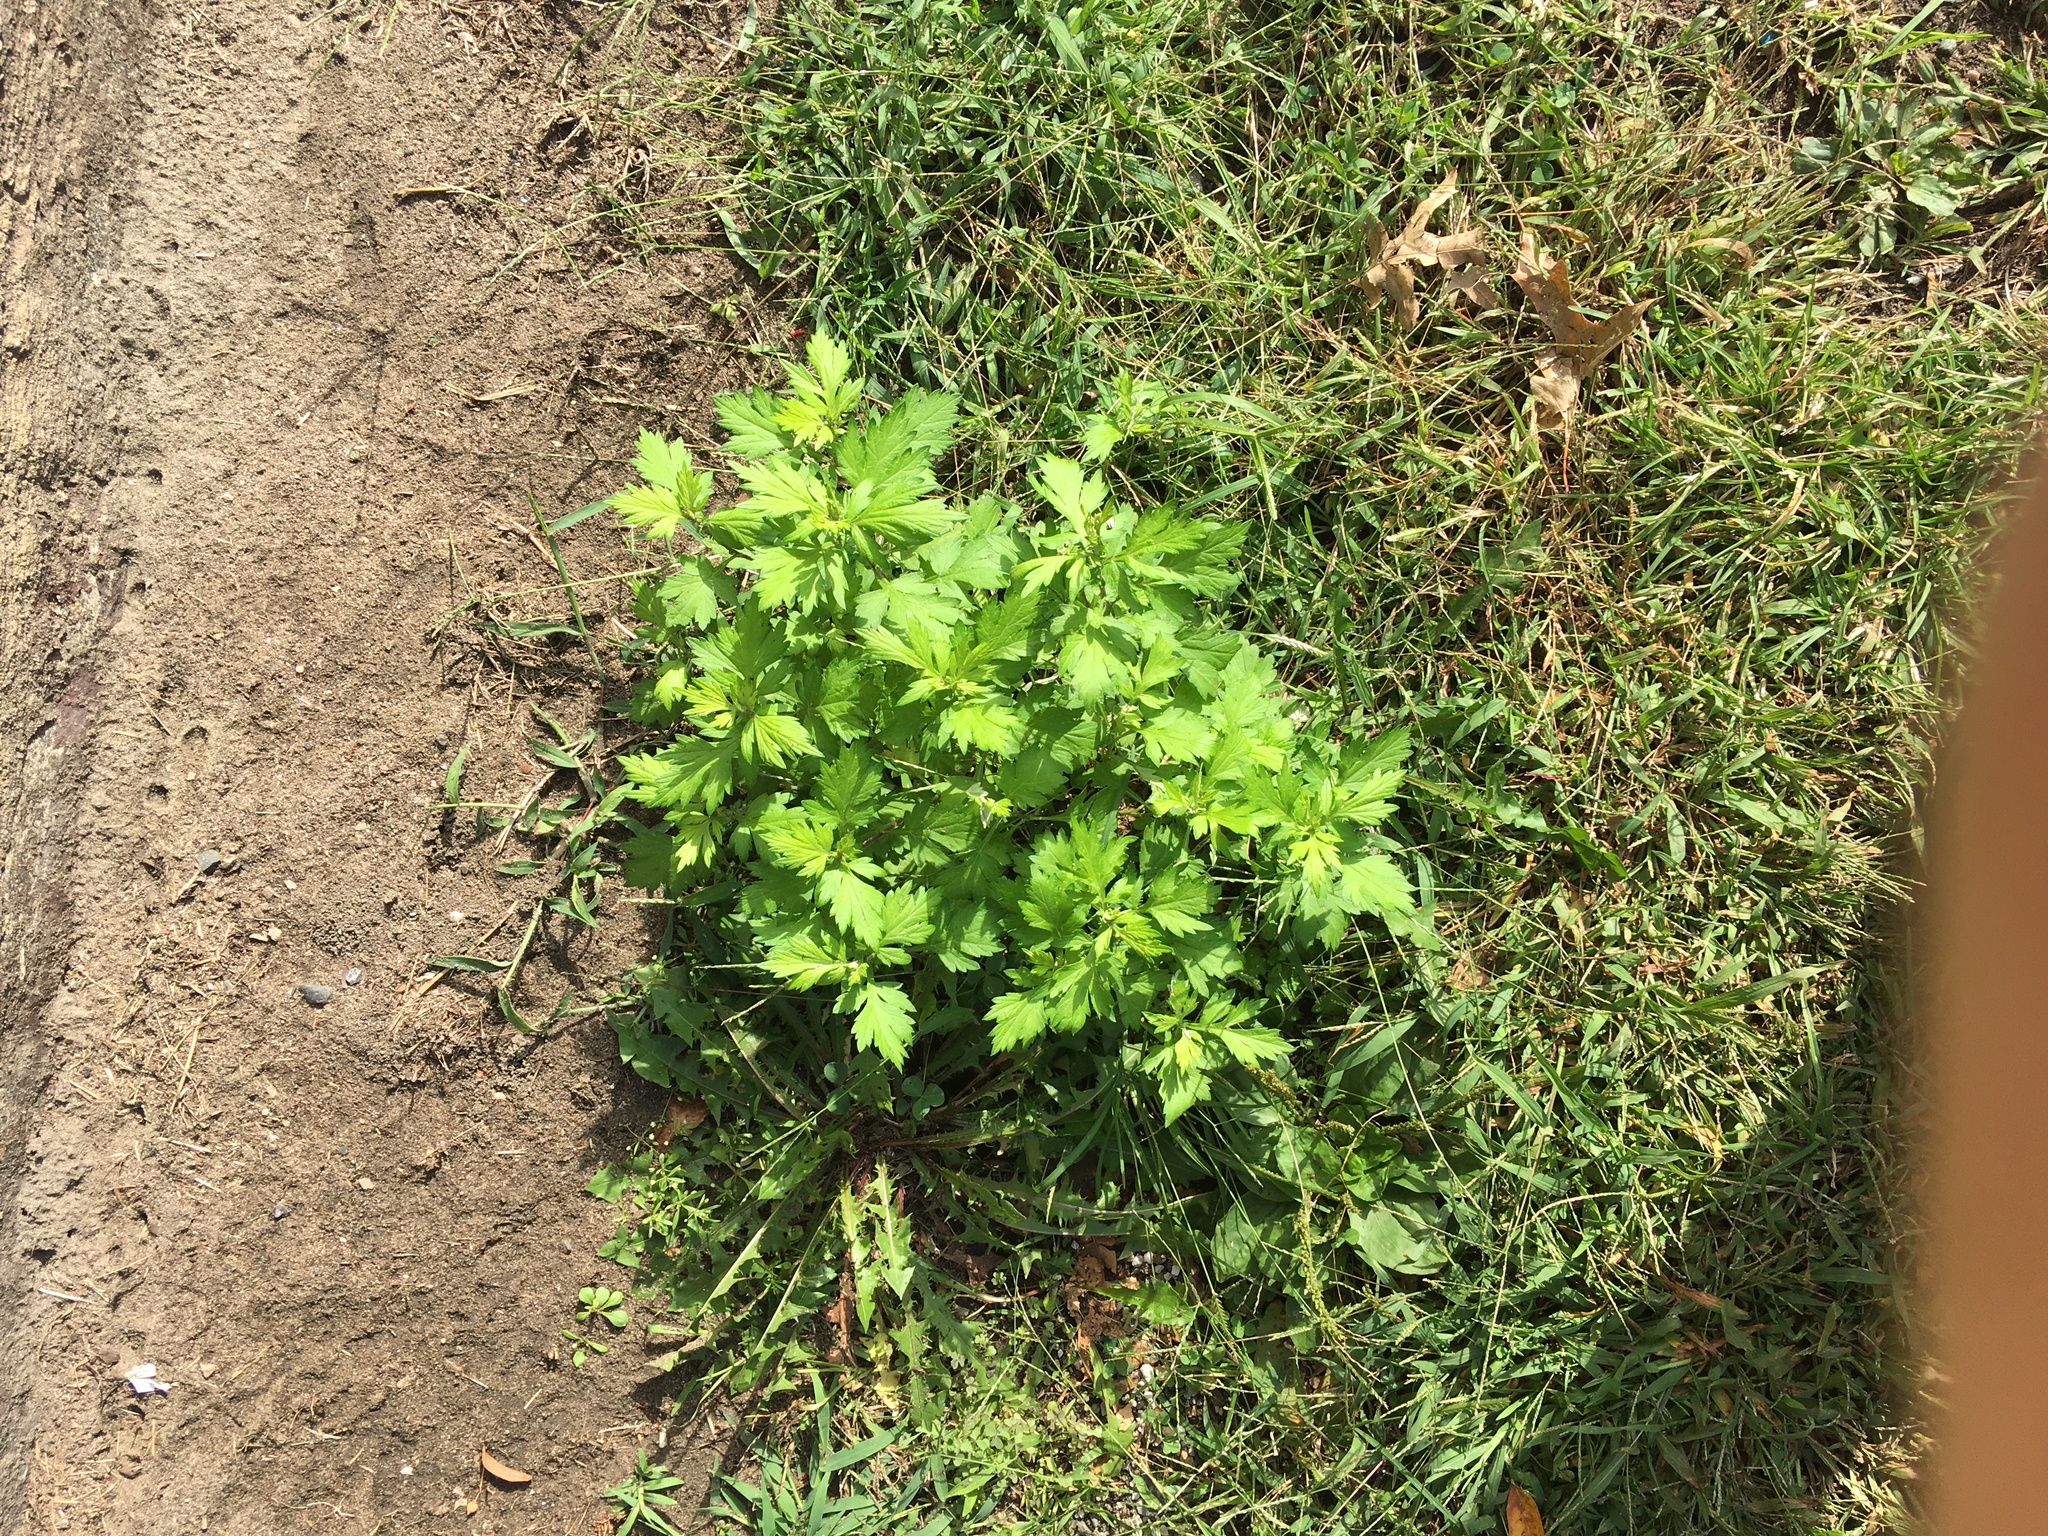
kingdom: Plantae
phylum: Tracheophyta
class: Magnoliopsida
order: Asterales
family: Asteraceae
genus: Artemisia
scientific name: Artemisia vulgaris
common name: Mugwort
